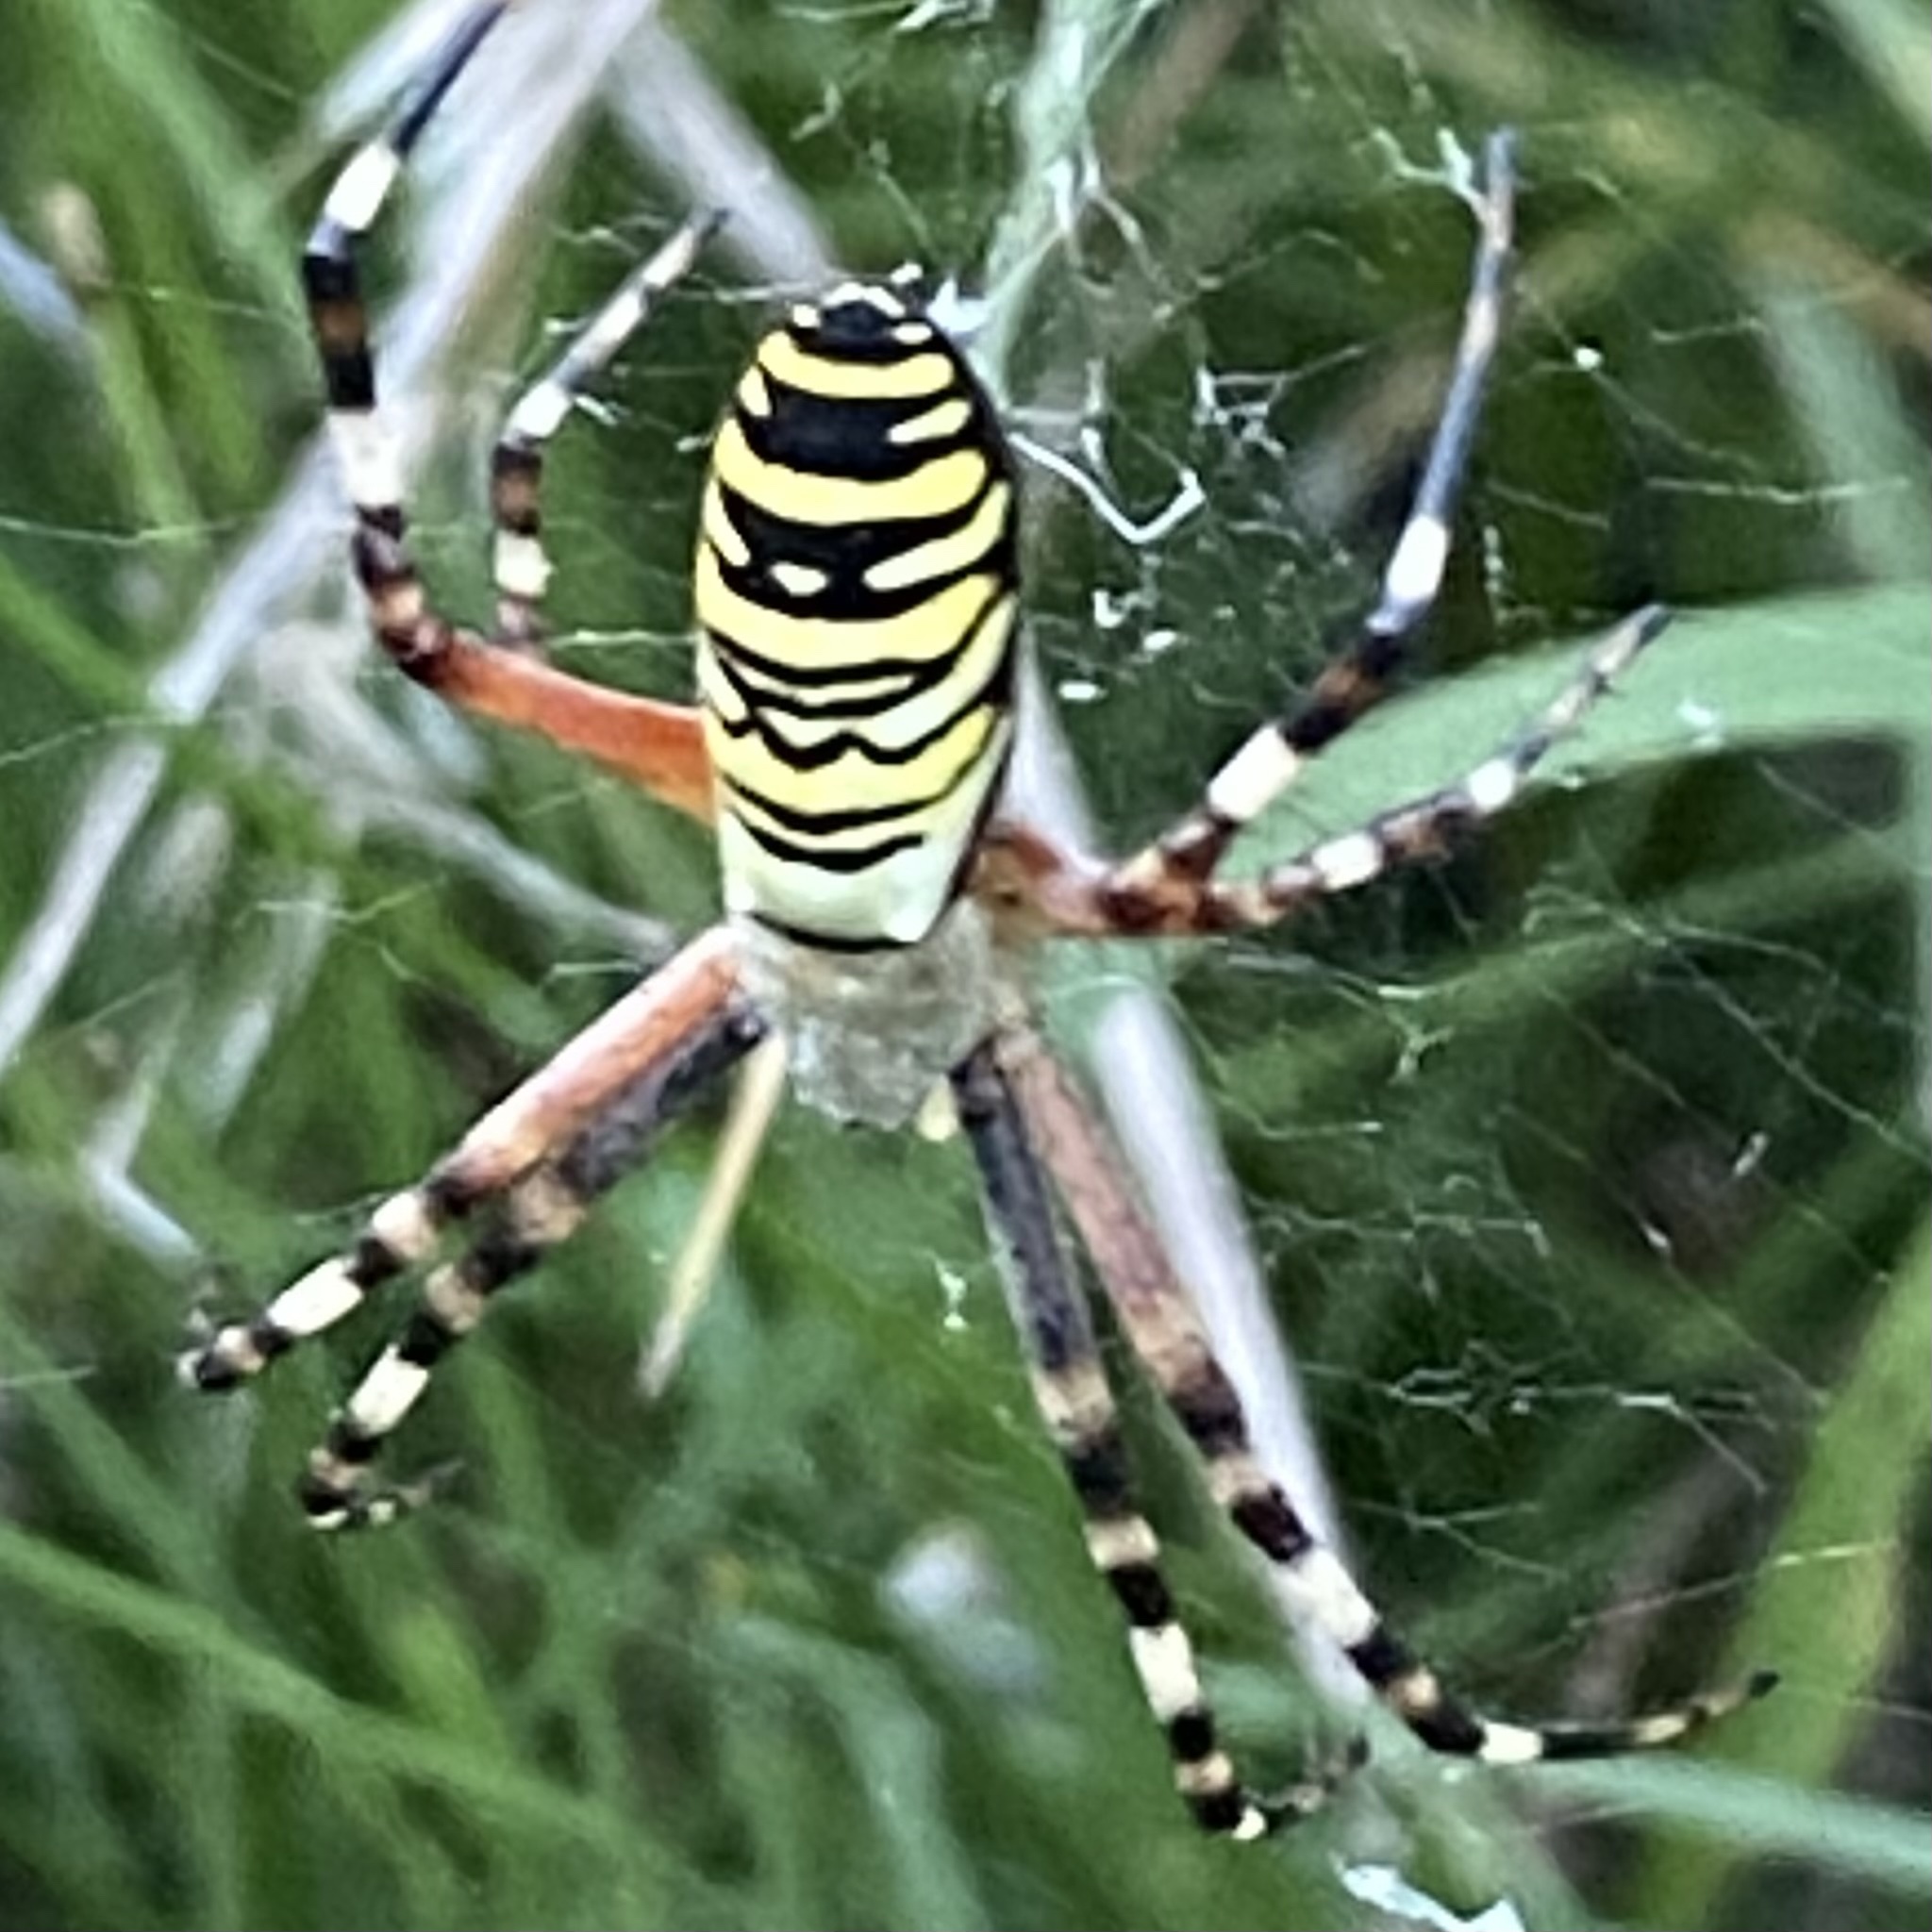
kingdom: Animalia
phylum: Arthropoda
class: Arachnida
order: Araneae
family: Araneidae
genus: Argiope
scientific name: Argiope bruennichi
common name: Wasp spider
